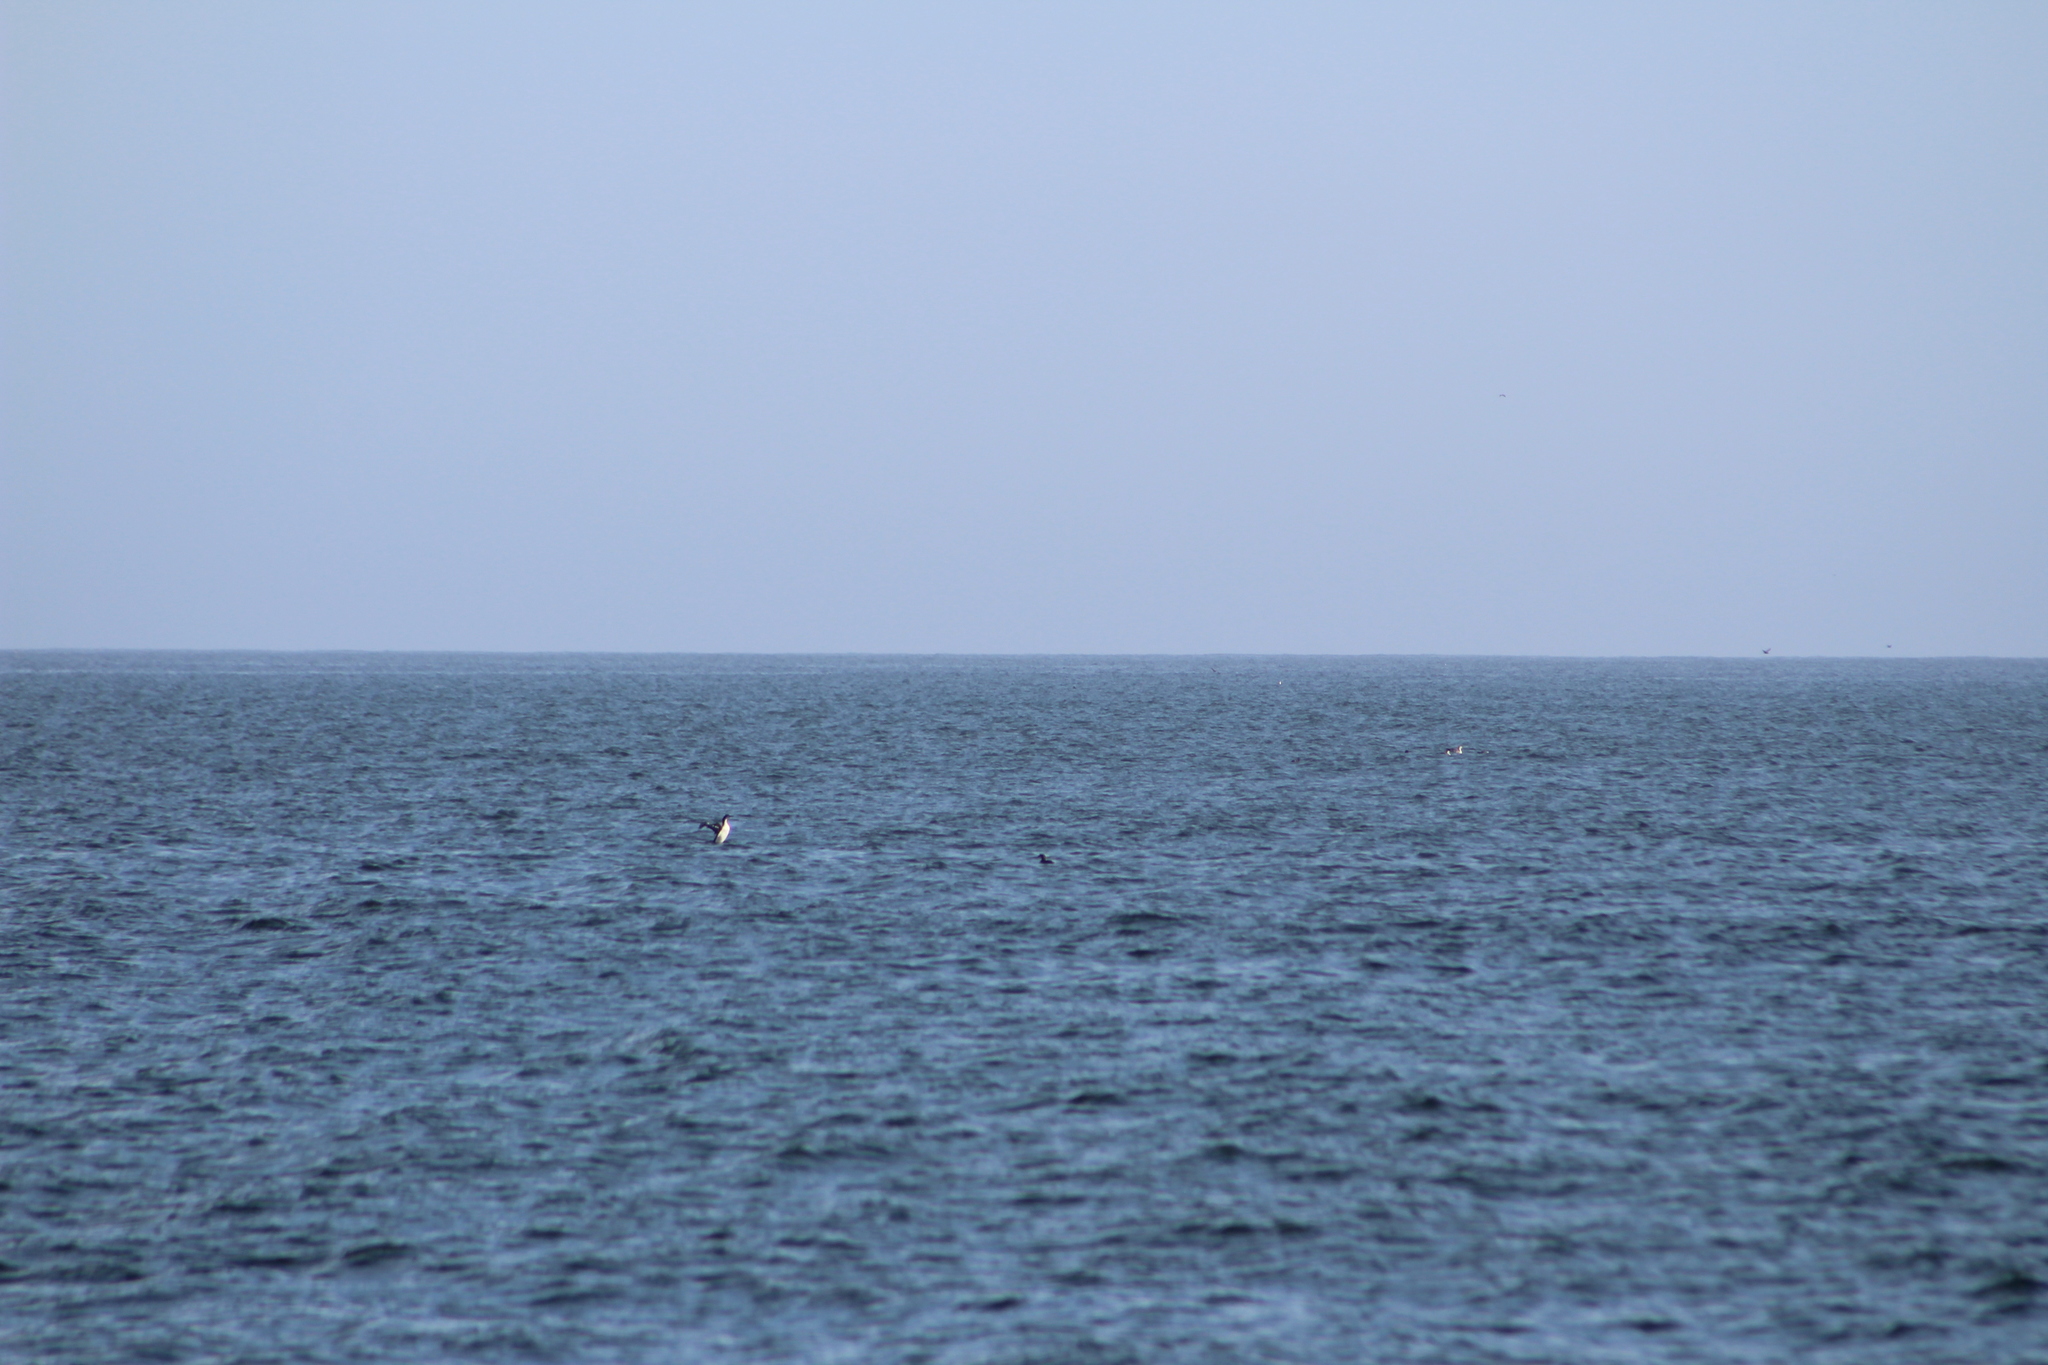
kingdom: Animalia
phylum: Chordata
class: Aves
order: Gaviiformes
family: Gaviidae
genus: Gavia
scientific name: Gavia
